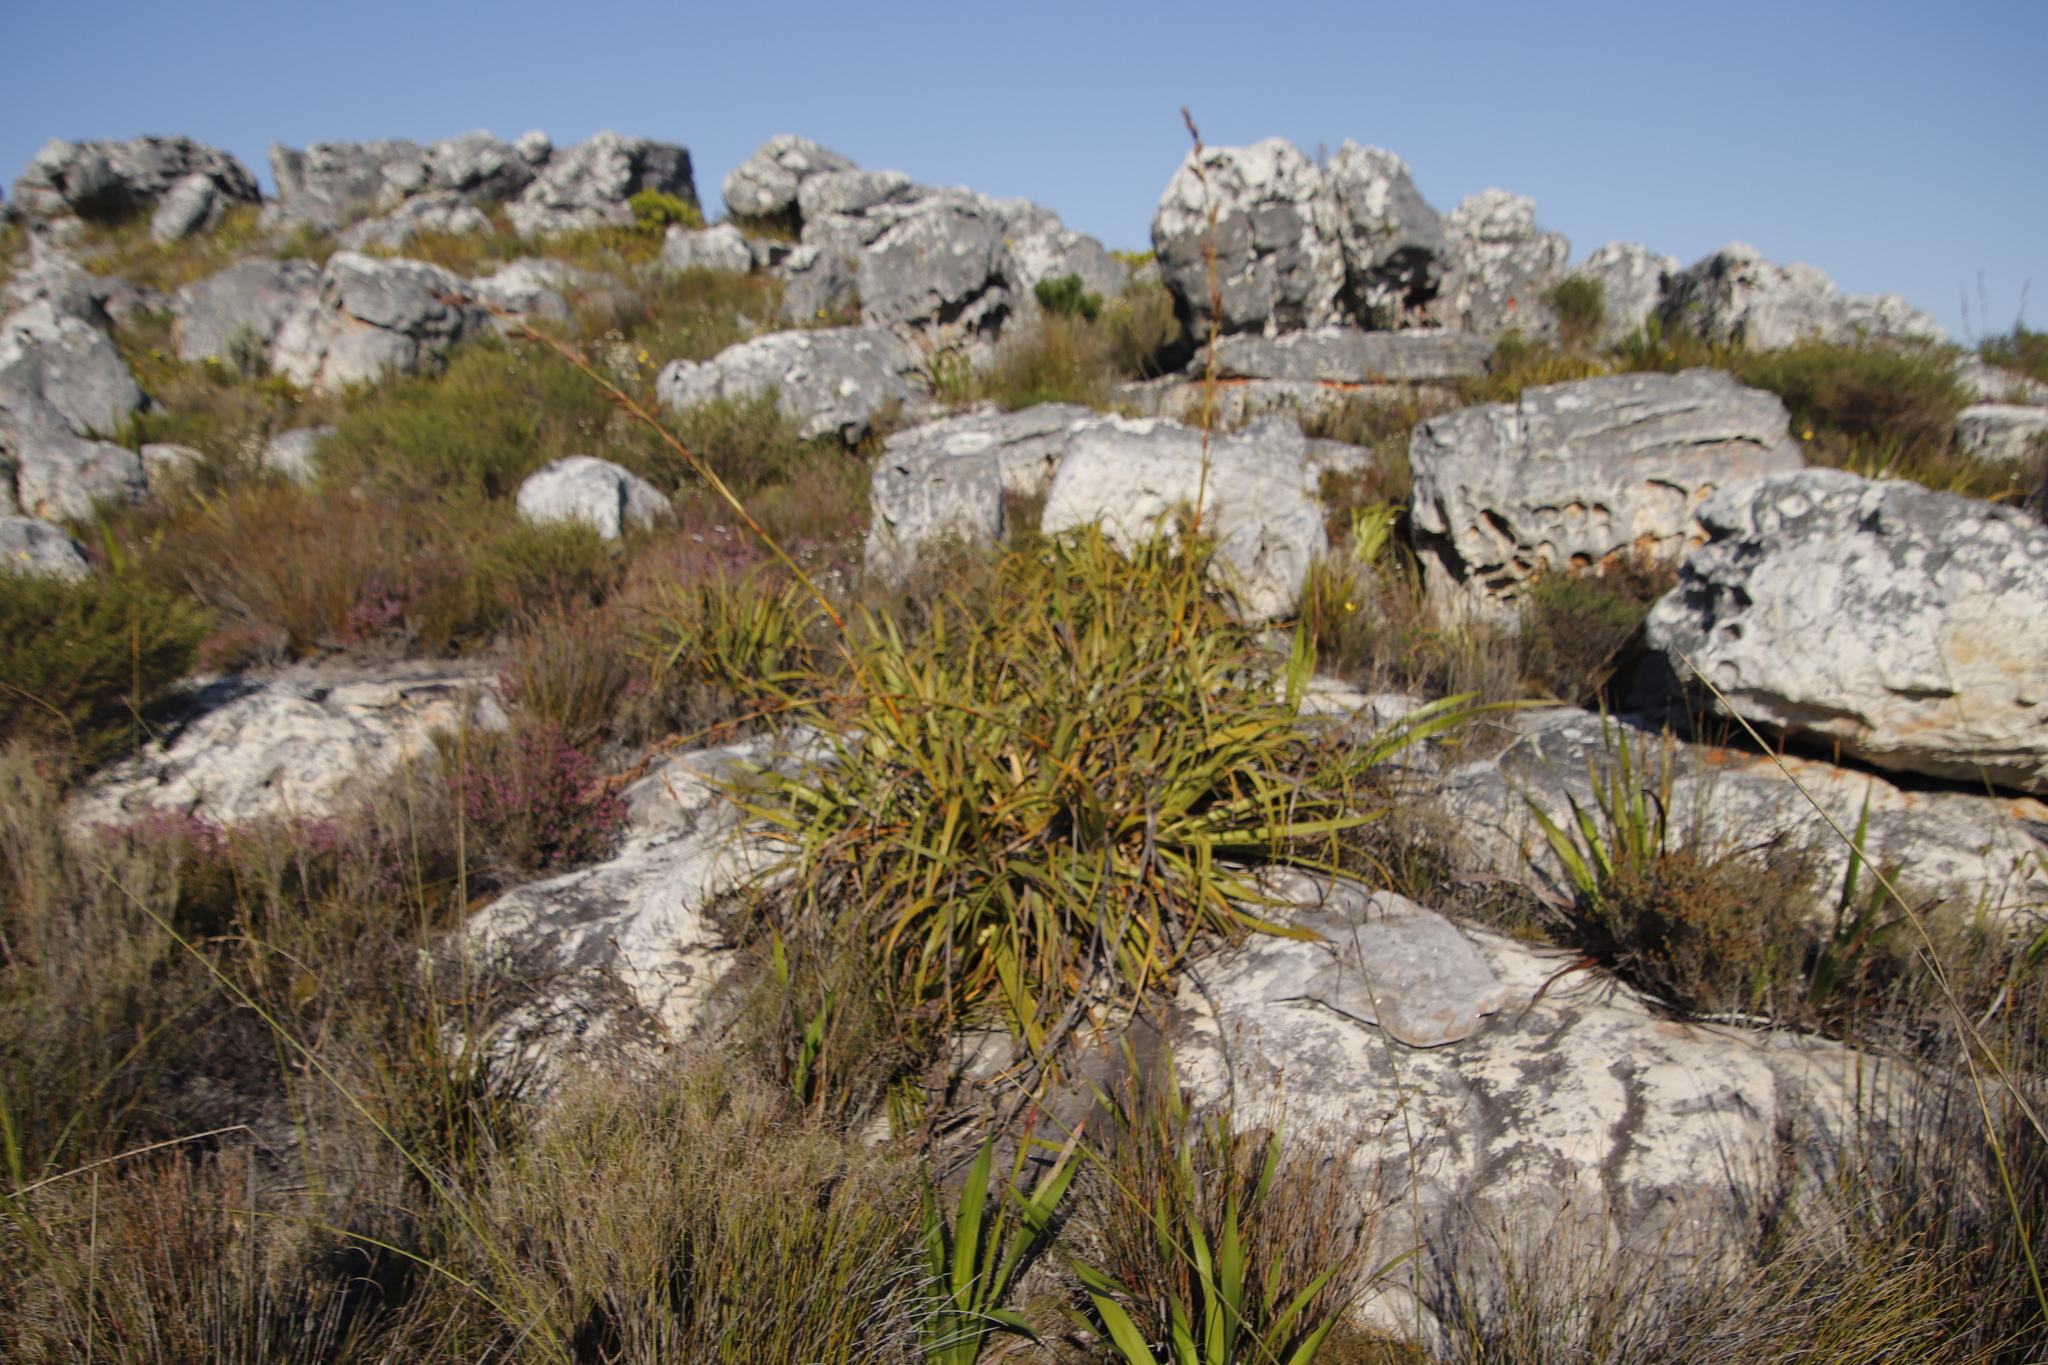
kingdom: Plantae
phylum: Tracheophyta
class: Liliopsida
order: Poales
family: Cyperaceae
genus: Tetraria
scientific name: Tetraria thermalis
